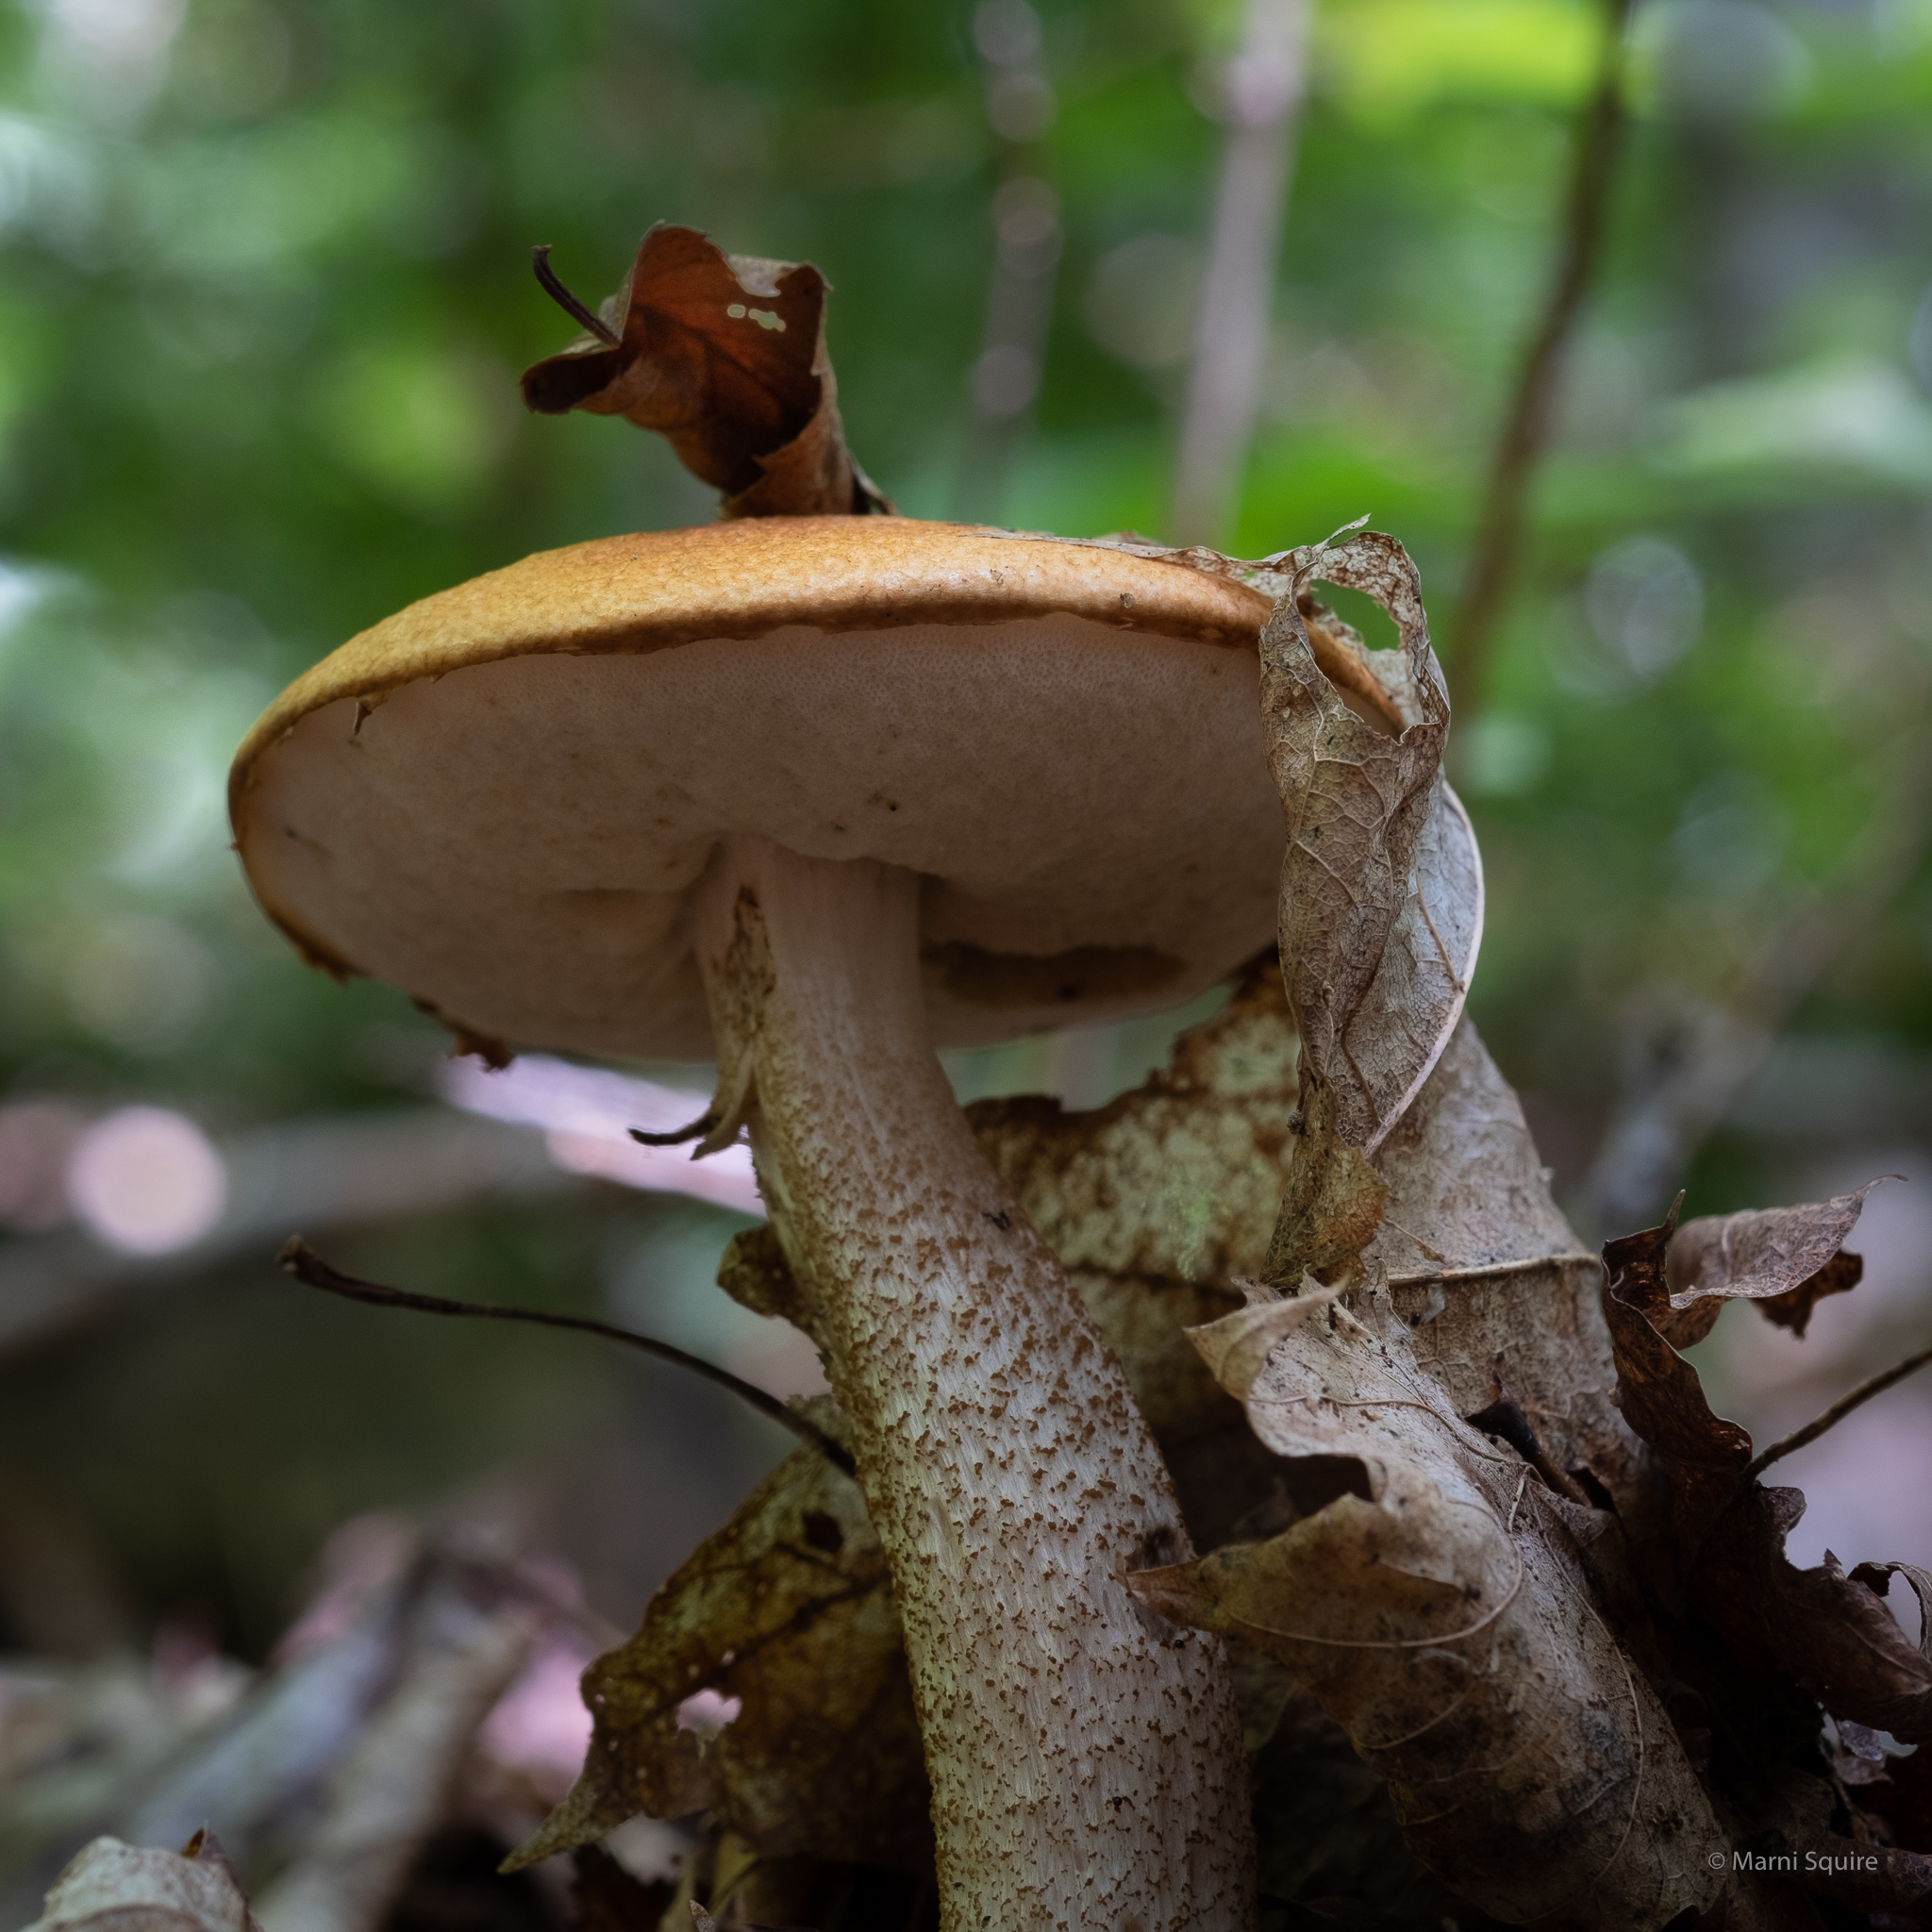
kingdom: Fungi
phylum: Basidiomycota
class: Agaricomycetes
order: Boletales
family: Boletaceae
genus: Leccinum
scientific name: Leccinum aurantiacum
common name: Orange bolete
